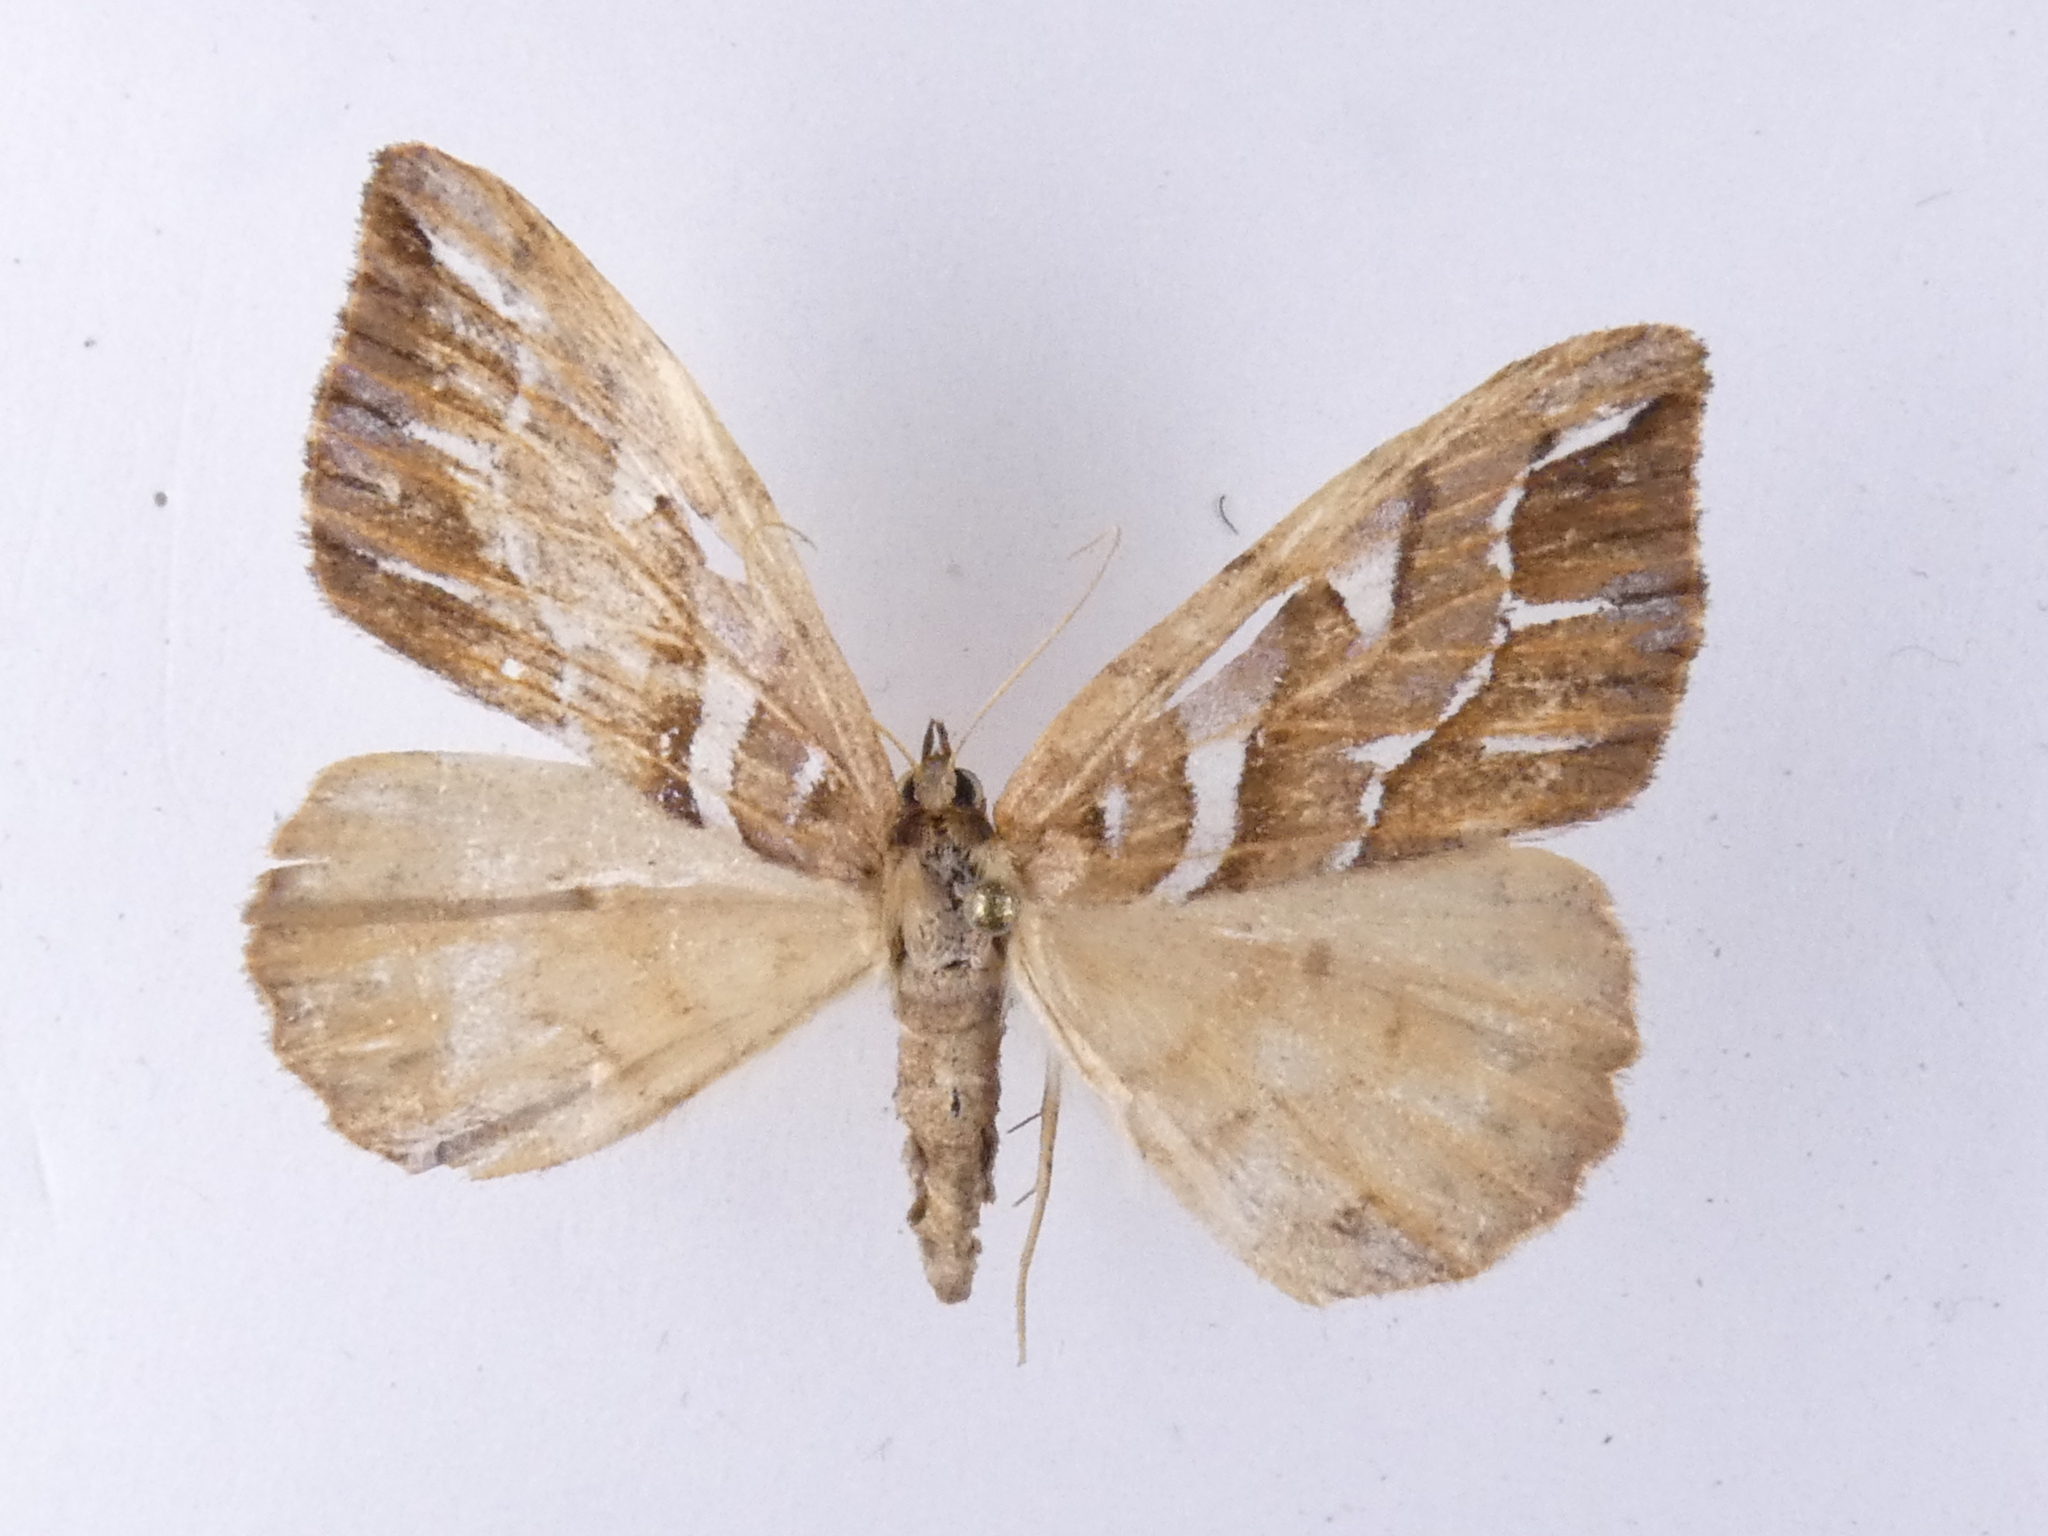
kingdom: Animalia
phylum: Arthropoda
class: Insecta
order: Lepidoptera
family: Geometridae
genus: Chalastra
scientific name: Chalastra aristarcha
